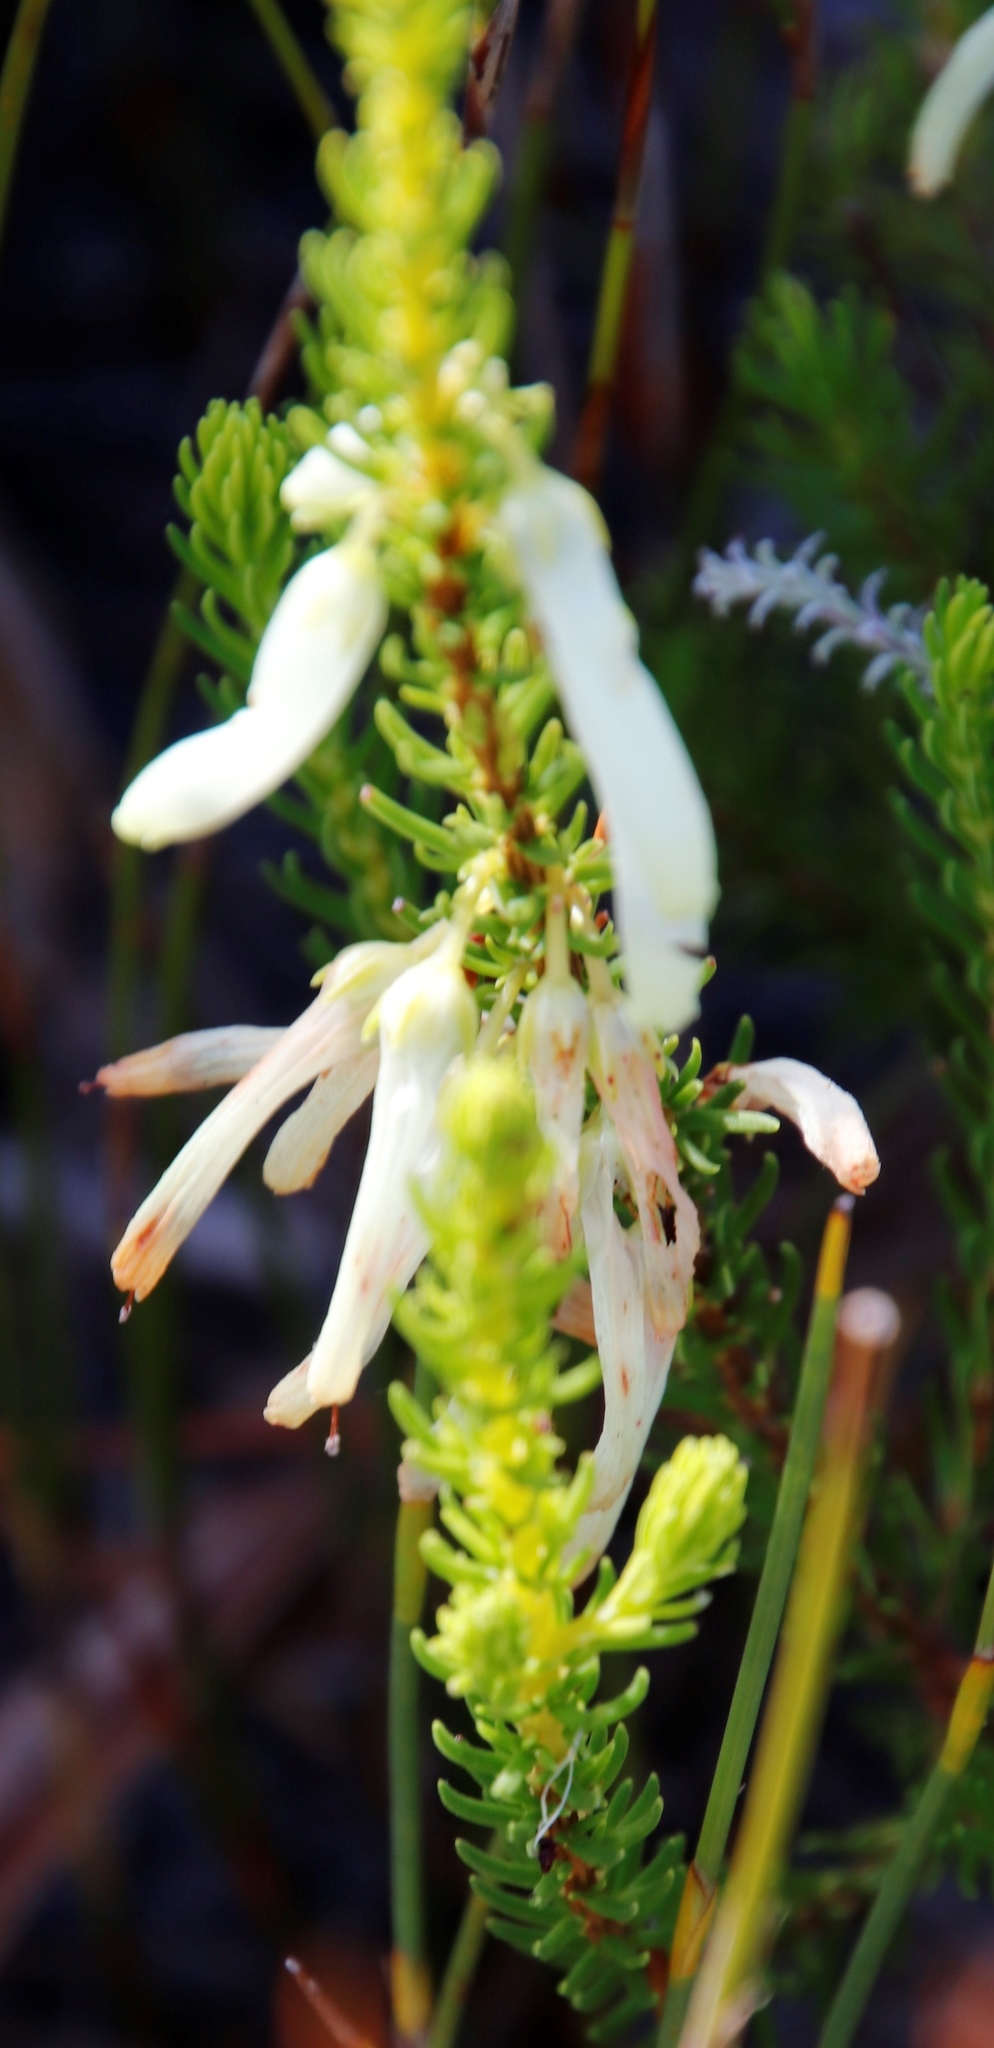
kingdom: Plantae
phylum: Tracheophyta
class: Magnoliopsida
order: Ericales
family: Ericaceae
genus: Erica
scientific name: Erica mammosa
